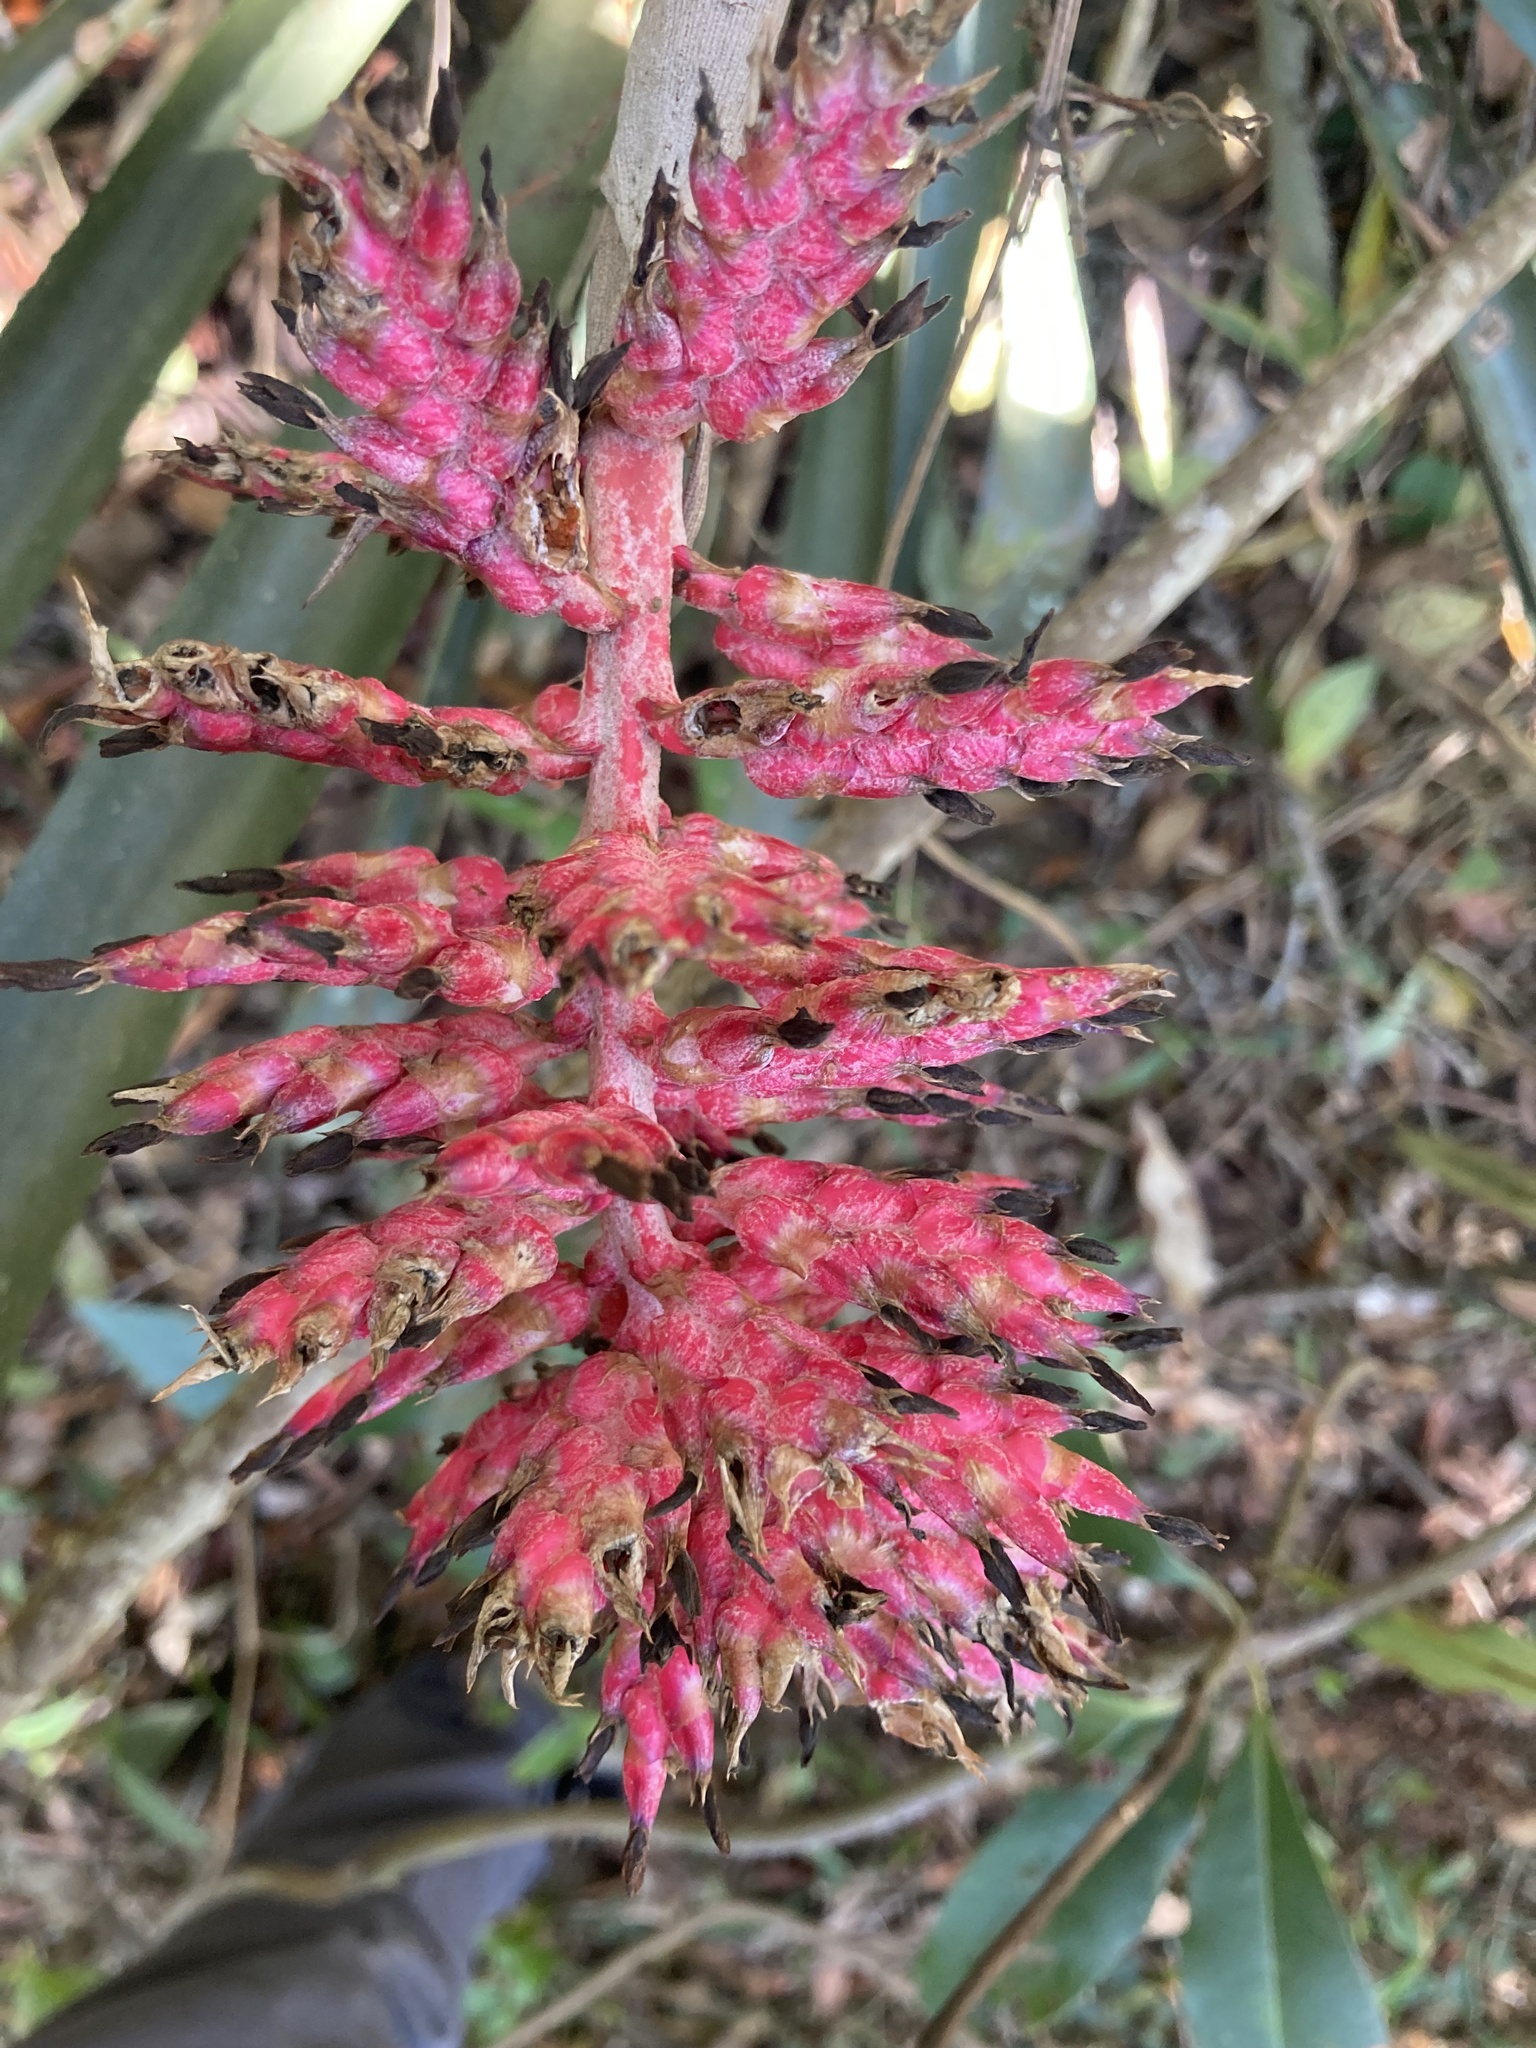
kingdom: Plantae
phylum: Tracheophyta
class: Liliopsida
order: Poales
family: Bromeliaceae
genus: Aechmea
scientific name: Aechmea distichantha
